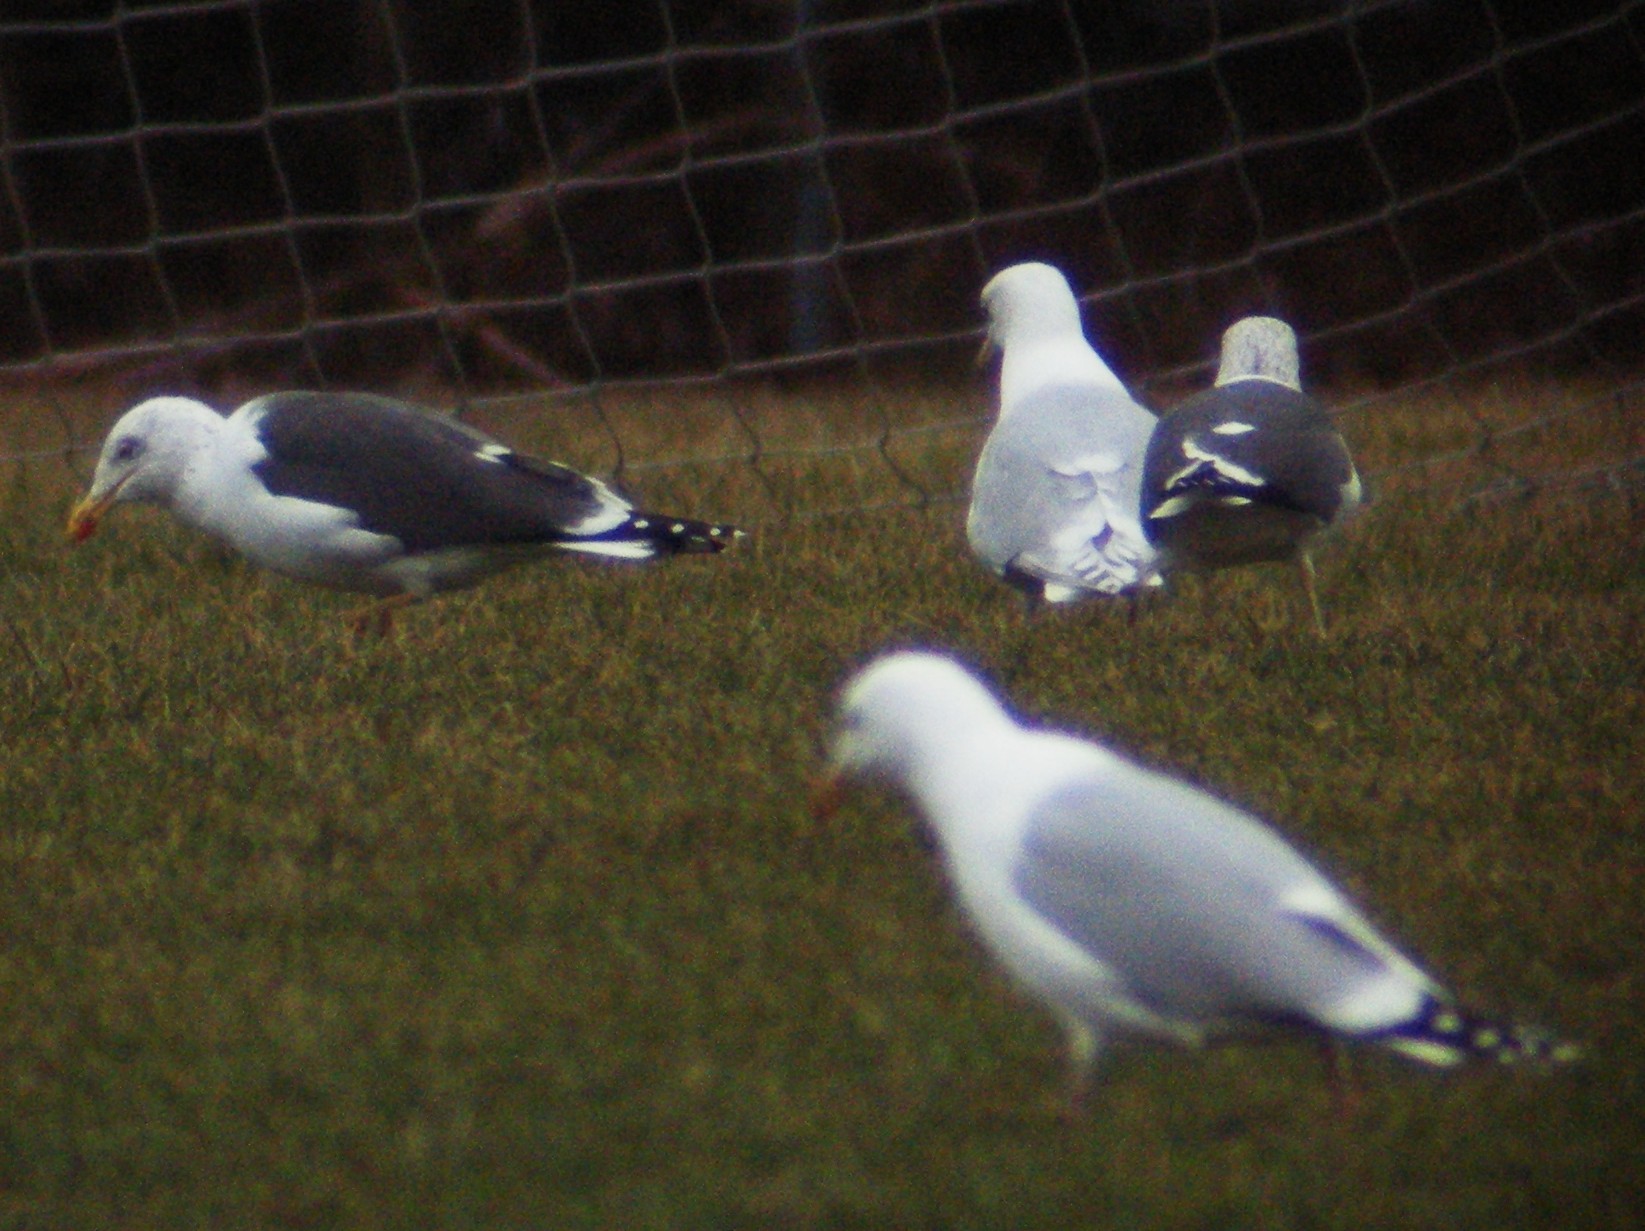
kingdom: Animalia
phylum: Chordata
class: Aves
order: Charadriiformes
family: Laridae
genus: Larus
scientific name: Larus glaucoides
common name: Iceland gull
